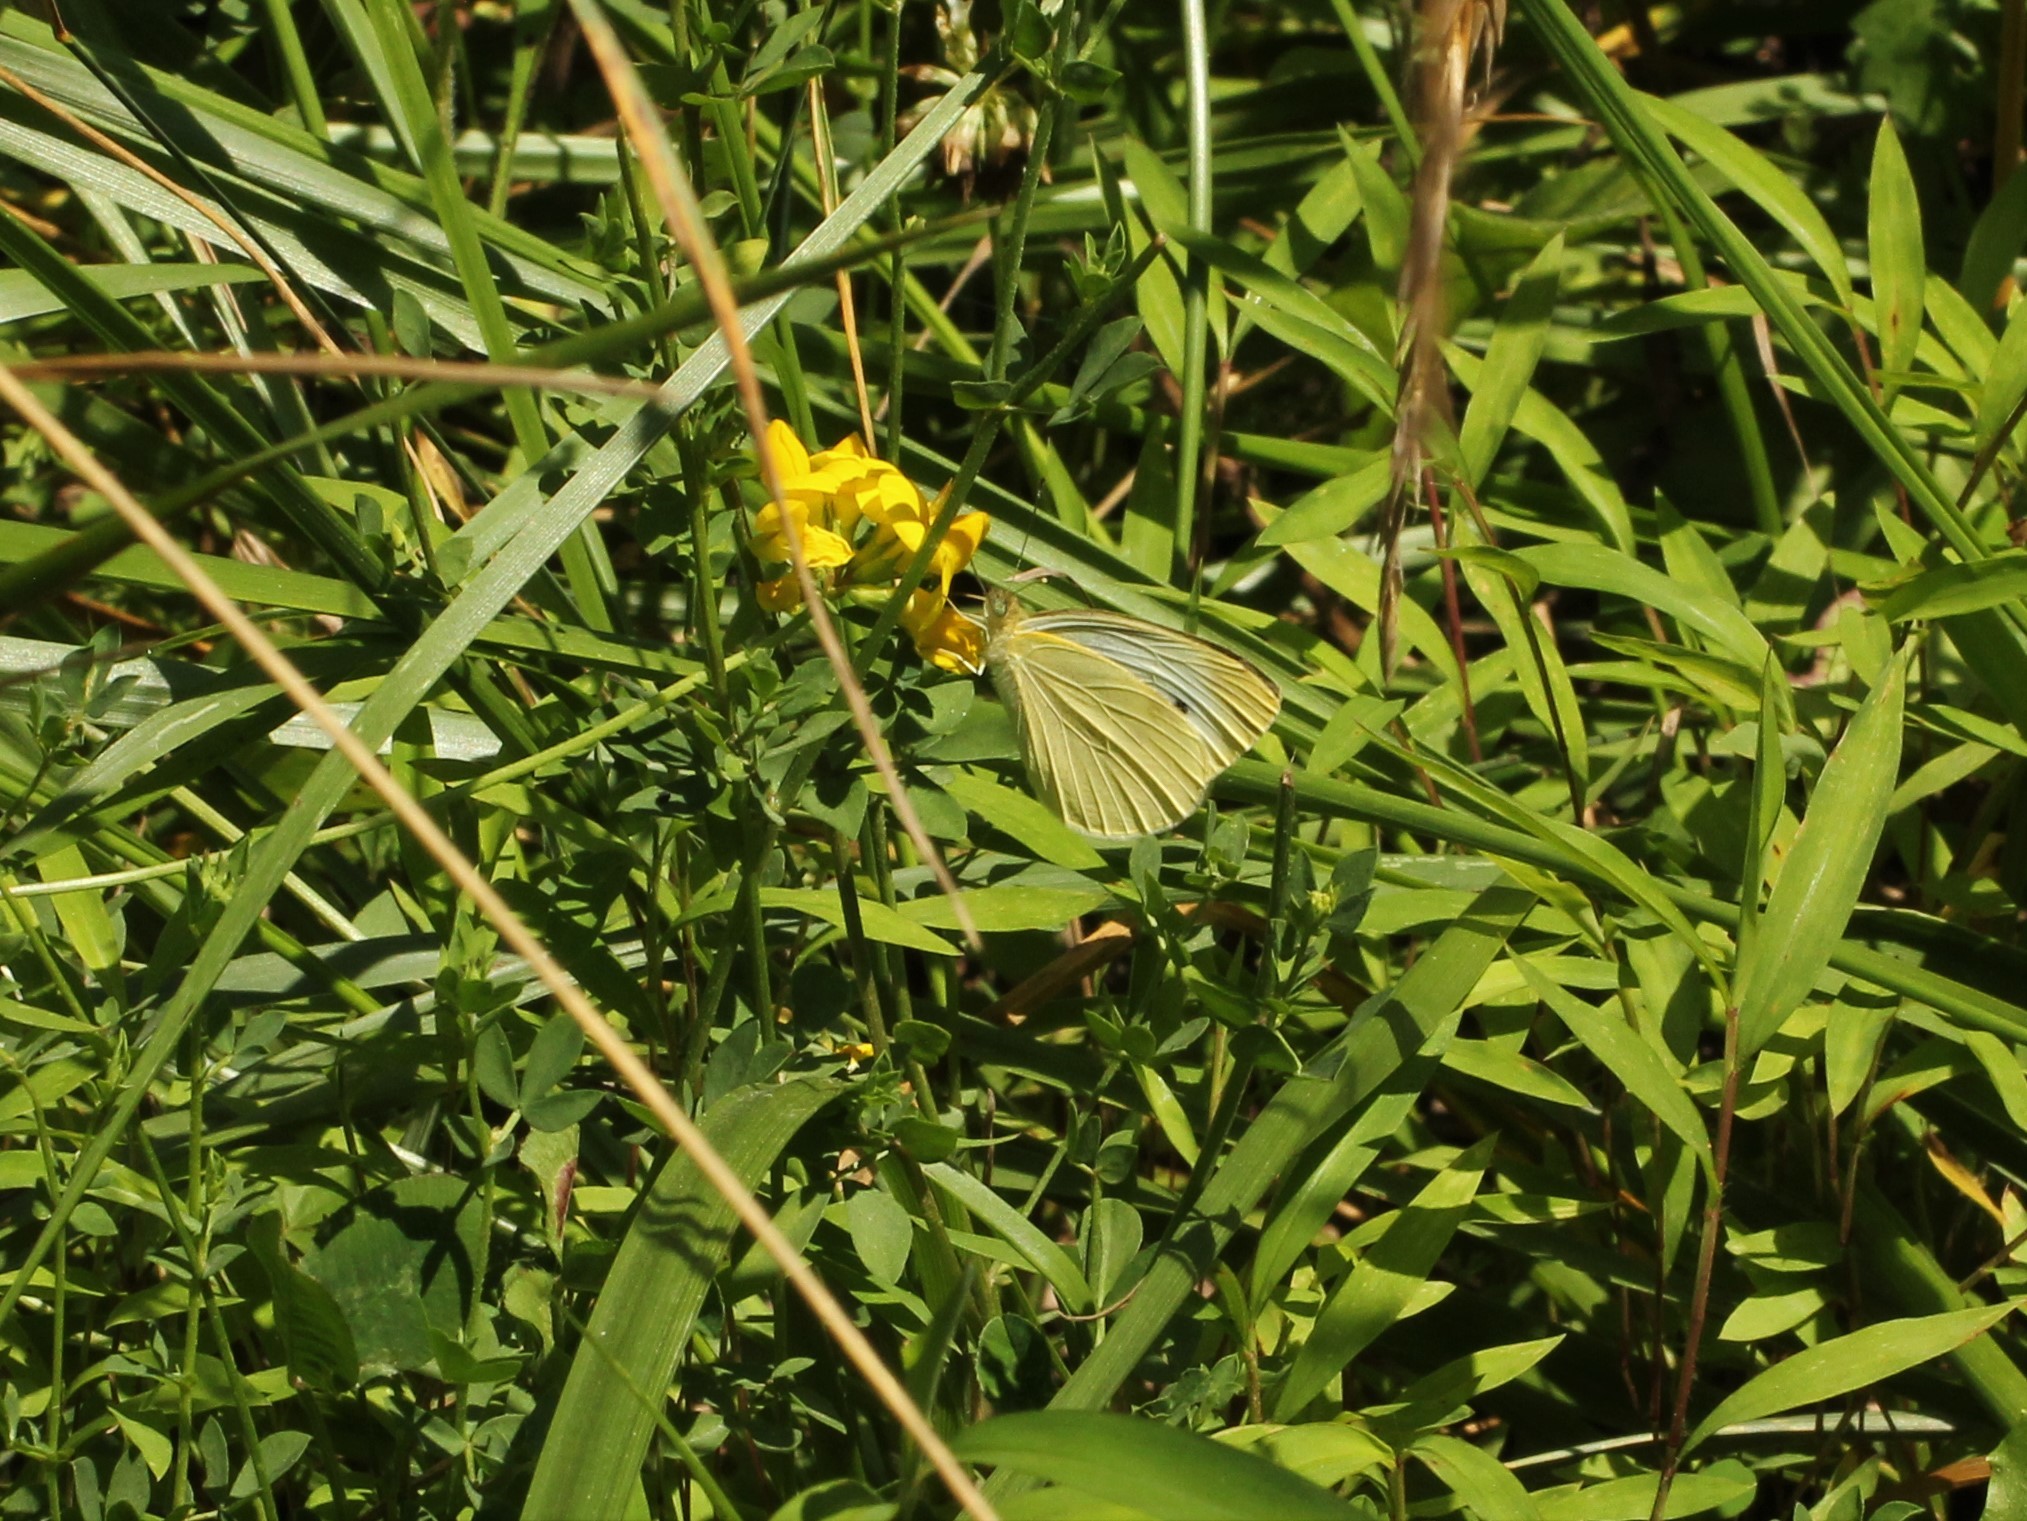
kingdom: Animalia
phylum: Arthropoda
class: Insecta
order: Lepidoptera
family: Pieridae
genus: Pieris
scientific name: Pieris rapae
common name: Small white
